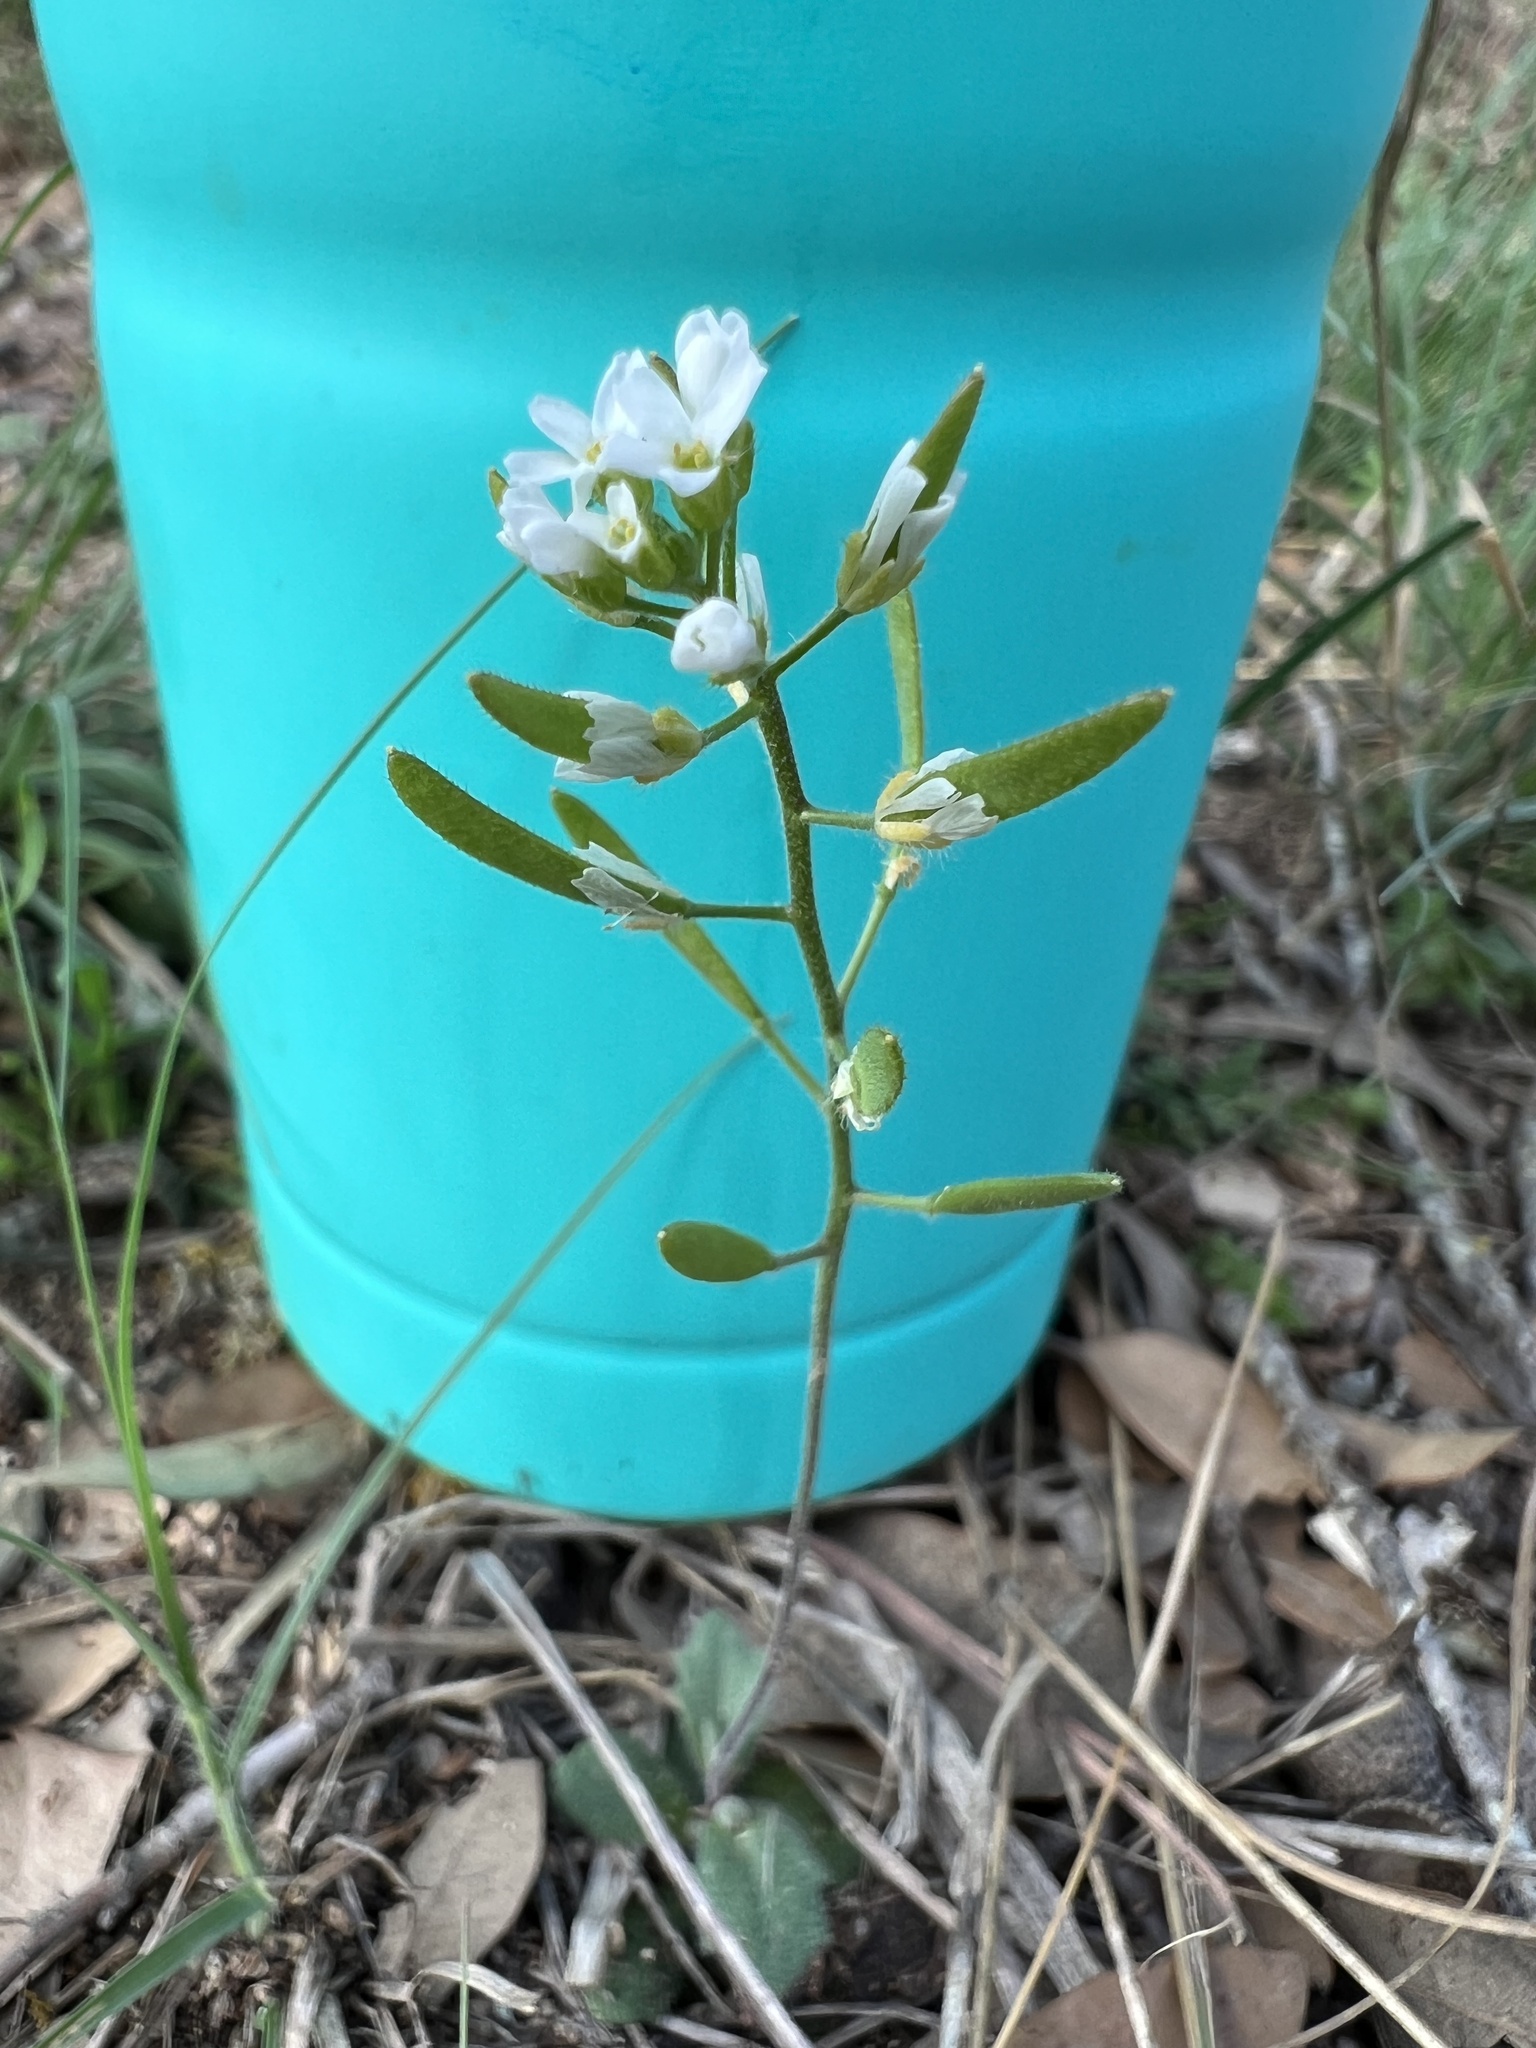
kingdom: Plantae
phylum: Tracheophyta
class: Magnoliopsida
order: Brassicales
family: Brassicaceae
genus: Tomostima
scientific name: Tomostima cuneifolia
